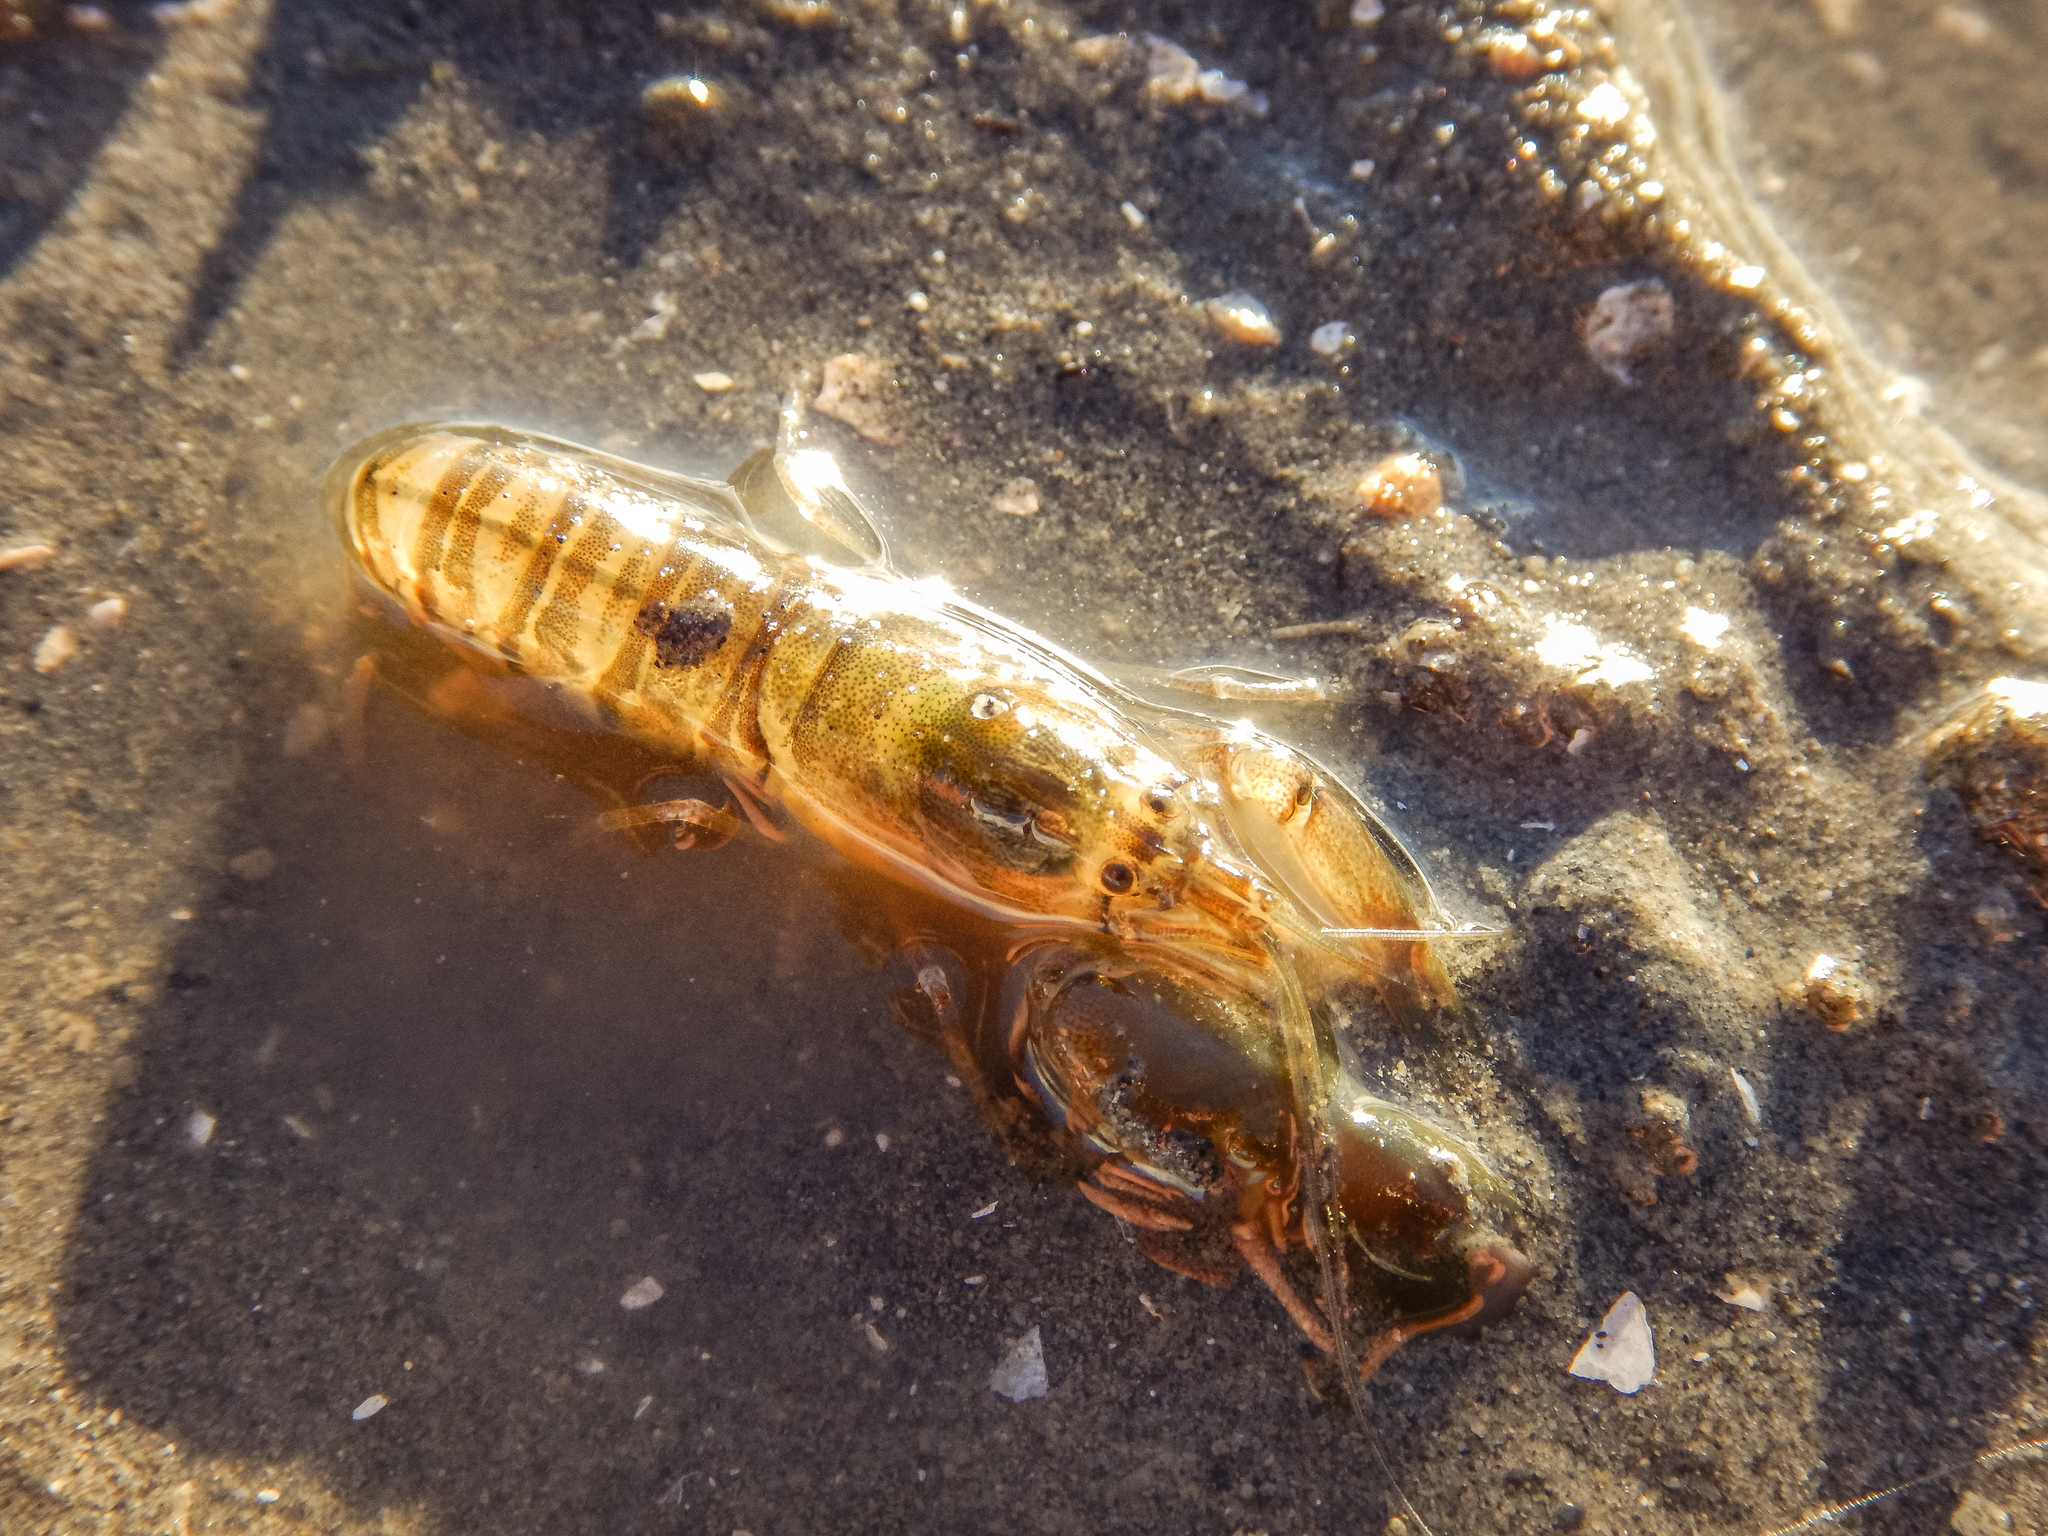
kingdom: Animalia
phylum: Arthropoda
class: Malacostraca
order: Decapoda
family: Alpheidae
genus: Alpheus
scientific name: Alpheus richardsoni
